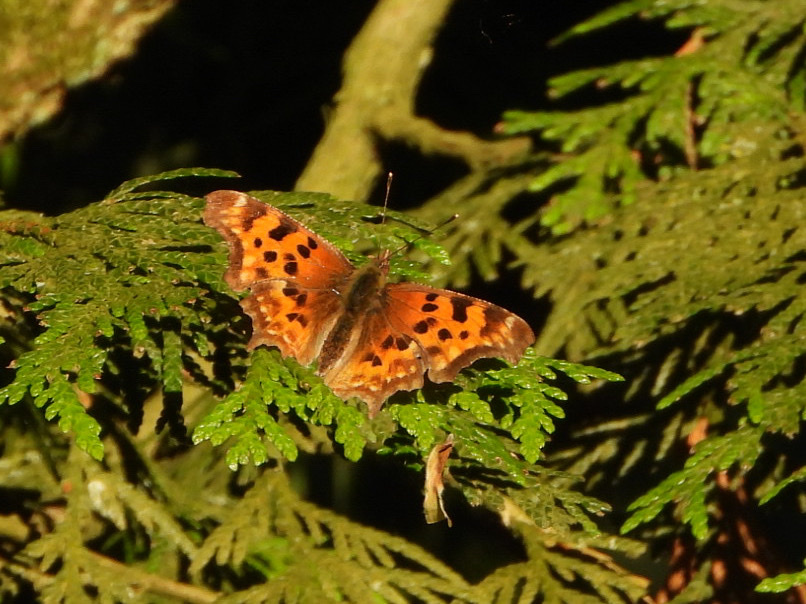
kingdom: Animalia
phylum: Arthropoda
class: Insecta
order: Lepidoptera
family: Nymphalidae
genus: Polygonia
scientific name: Polygonia satyrus
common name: Satyr angle wing
